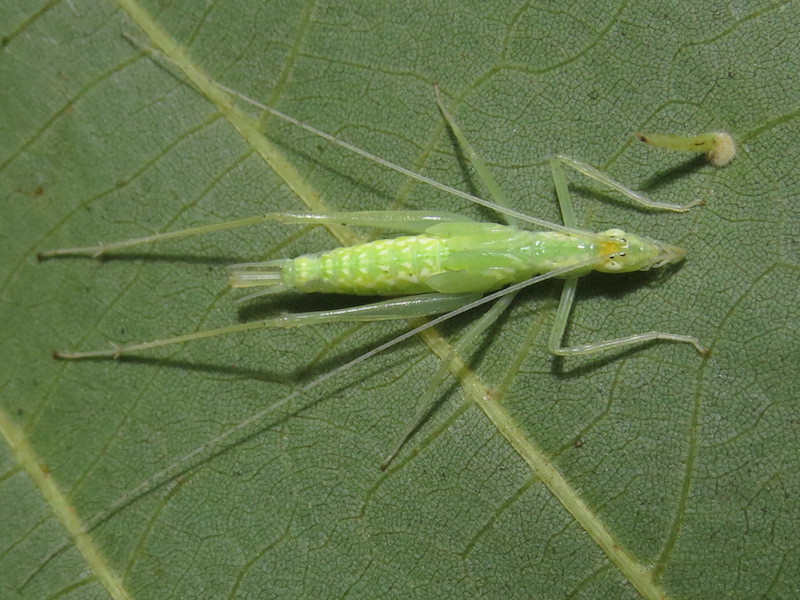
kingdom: Animalia
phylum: Arthropoda
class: Insecta
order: Orthoptera
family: Gryllidae
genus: Oecanthus
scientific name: Oecanthus niveus
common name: Narrow-winged tree cricket
